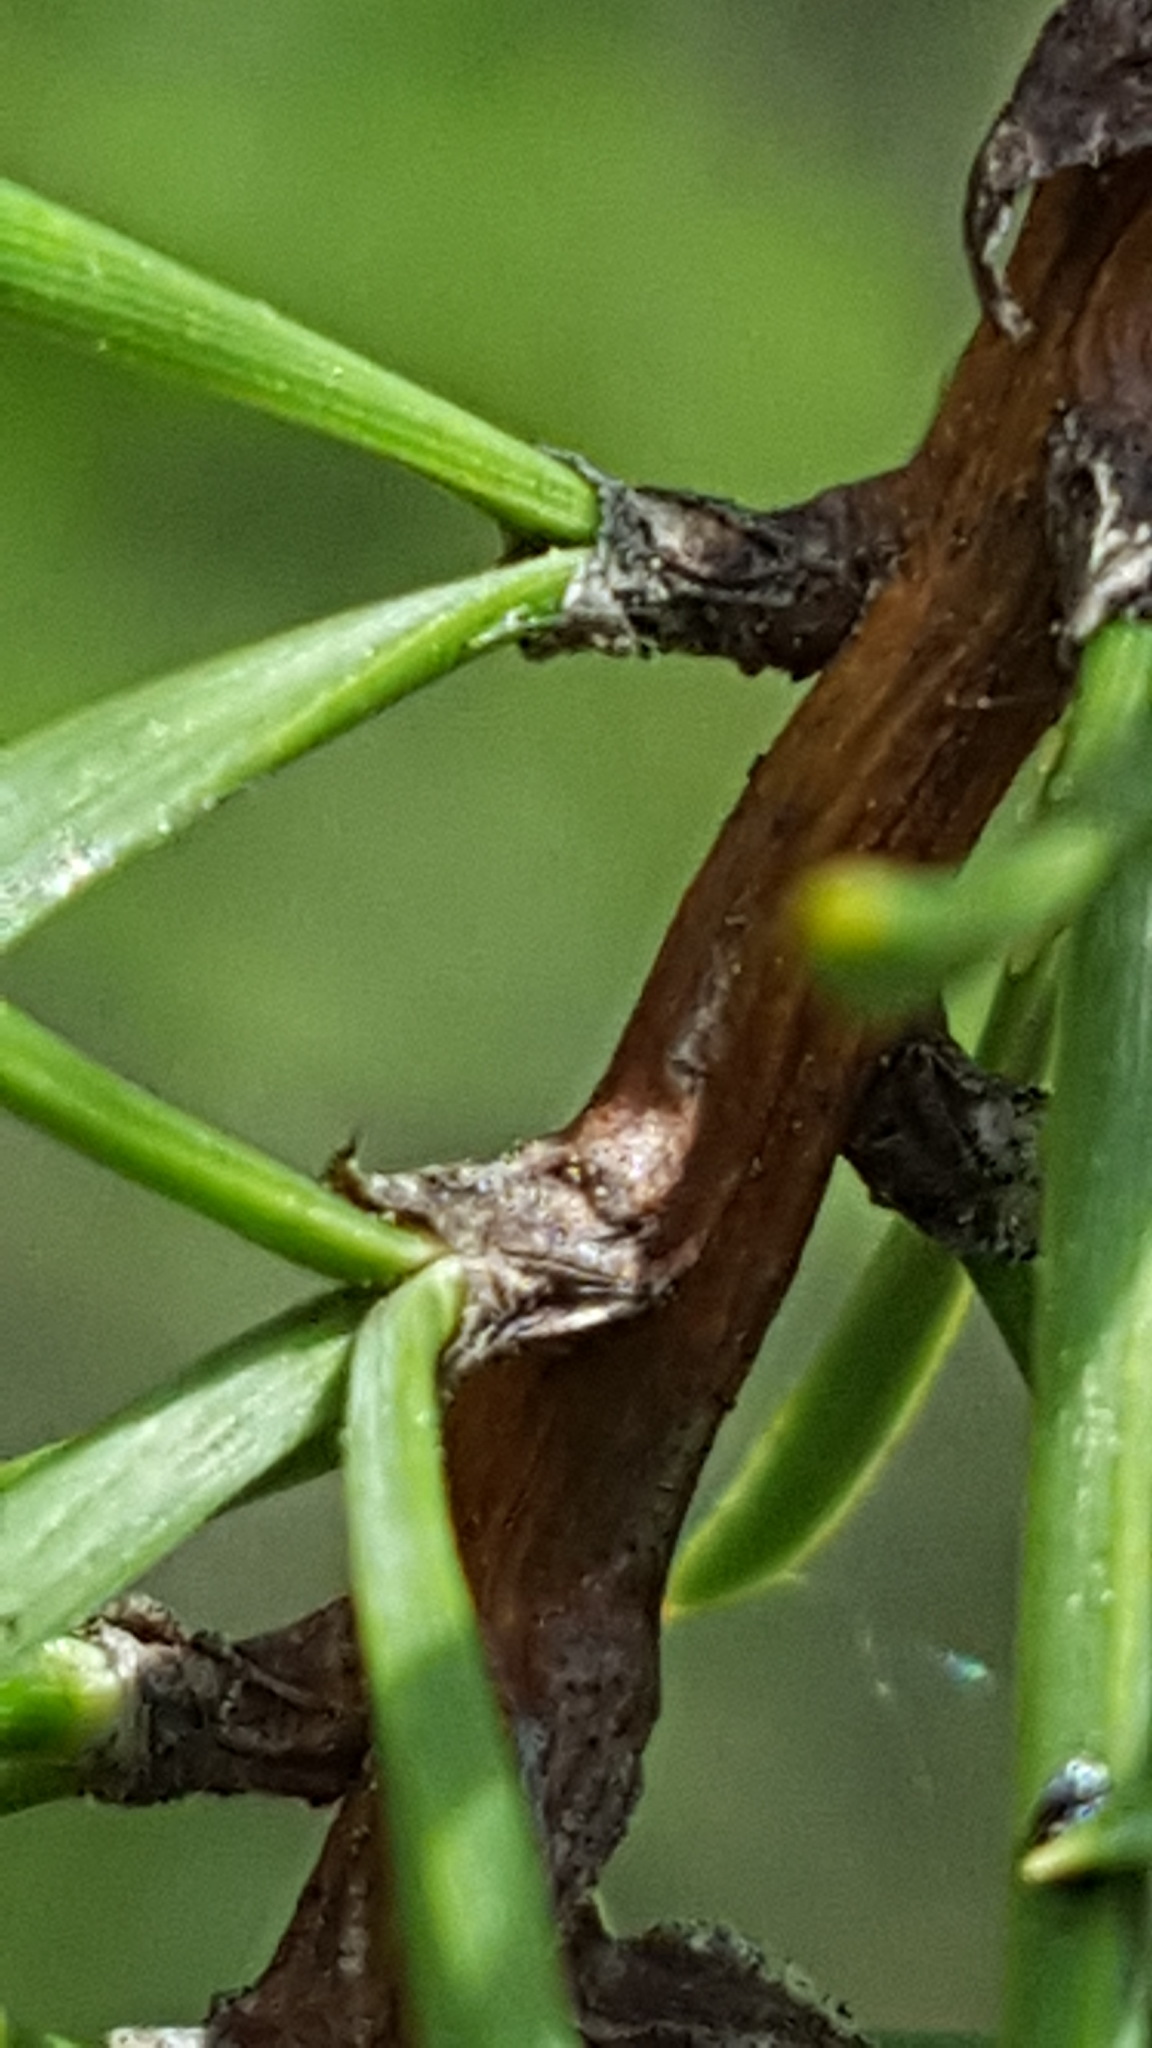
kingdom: Plantae
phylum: Tracheophyta
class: Pinopsida
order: Pinales
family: Pinaceae
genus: Pinus
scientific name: Pinus banksiana
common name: Jack pine
